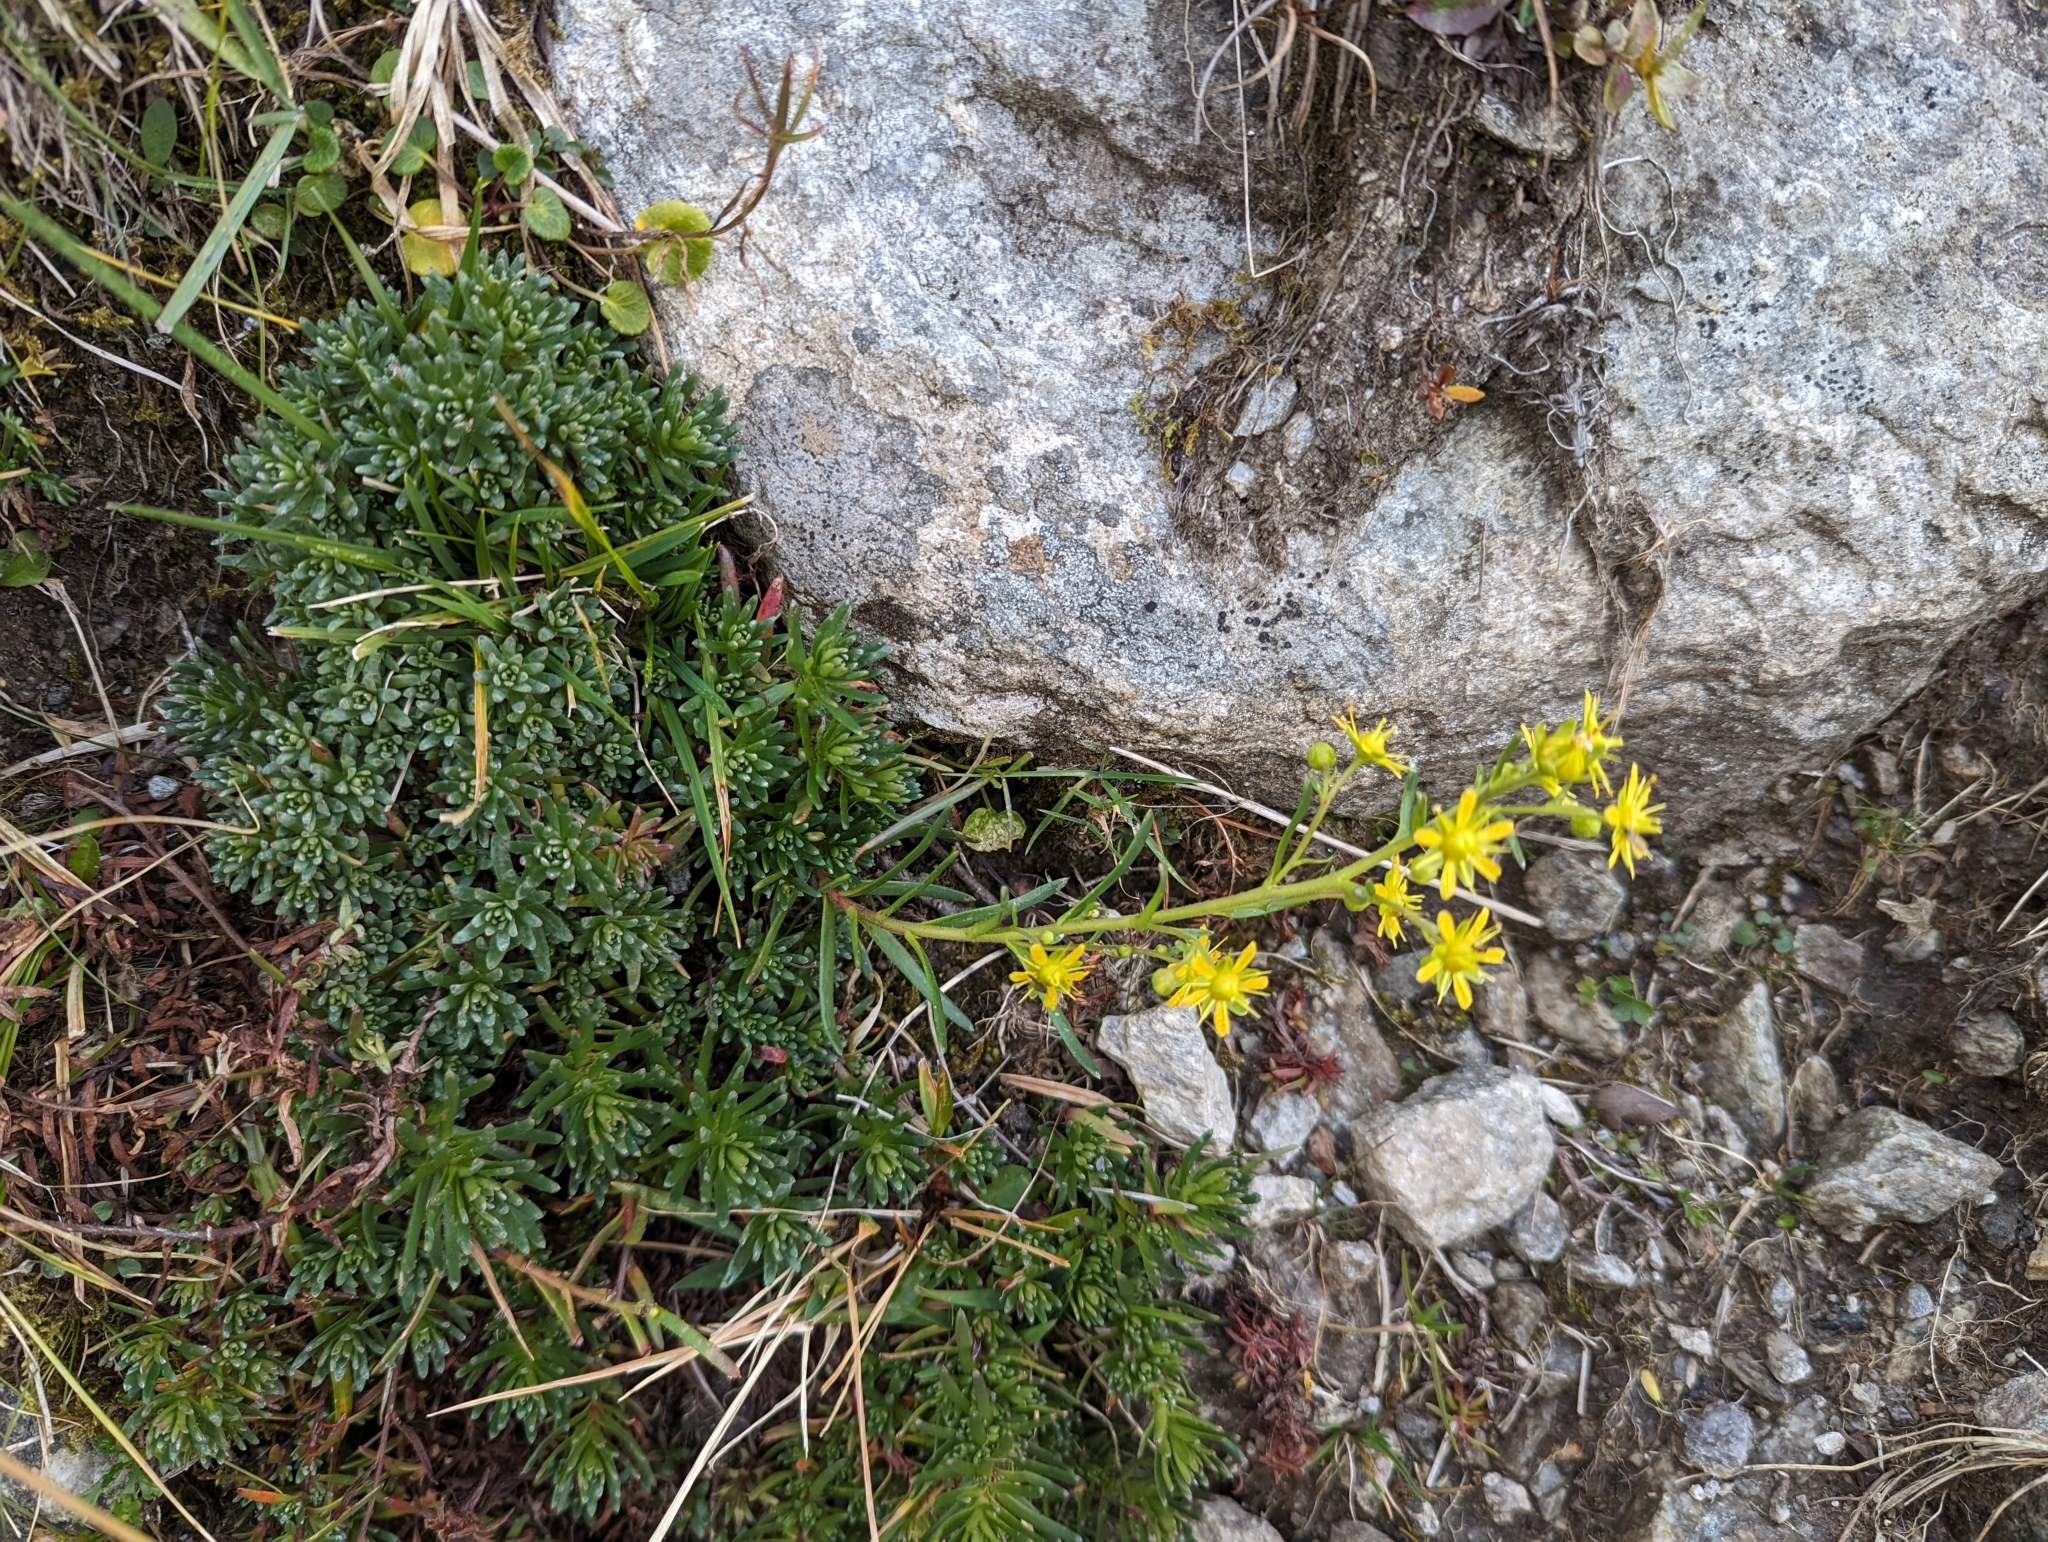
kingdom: Plantae
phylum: Tracheophyta
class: Magnoliopsida
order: Saxifragales
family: Saxifragaceae
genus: Saxifraga
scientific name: Saxifraga aizoides
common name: Yellow mountain saxifrage
